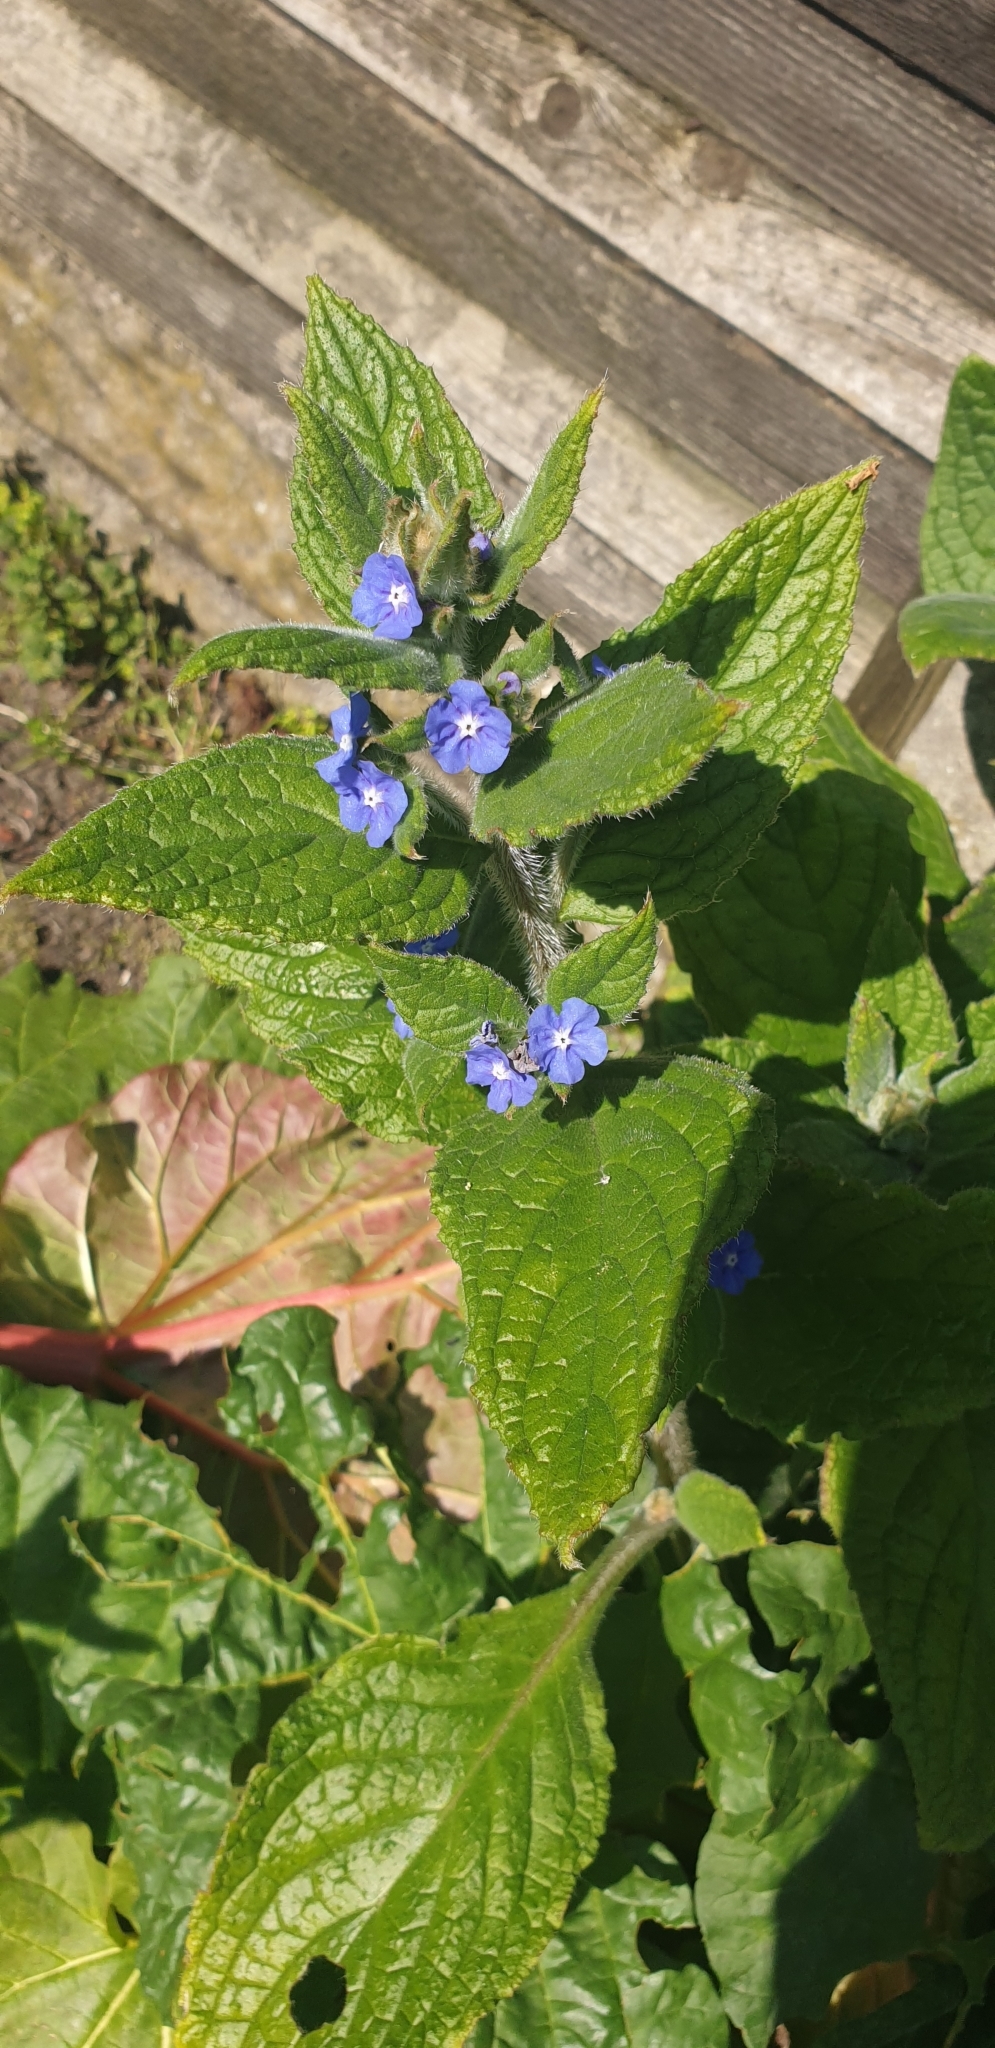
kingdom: Plantae
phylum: Tracheophyta
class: Magnoliopsida
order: Boraginales
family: Boraginaceae
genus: Pentaglottis
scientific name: Pentaglottis sempervirens
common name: Green alkanet
